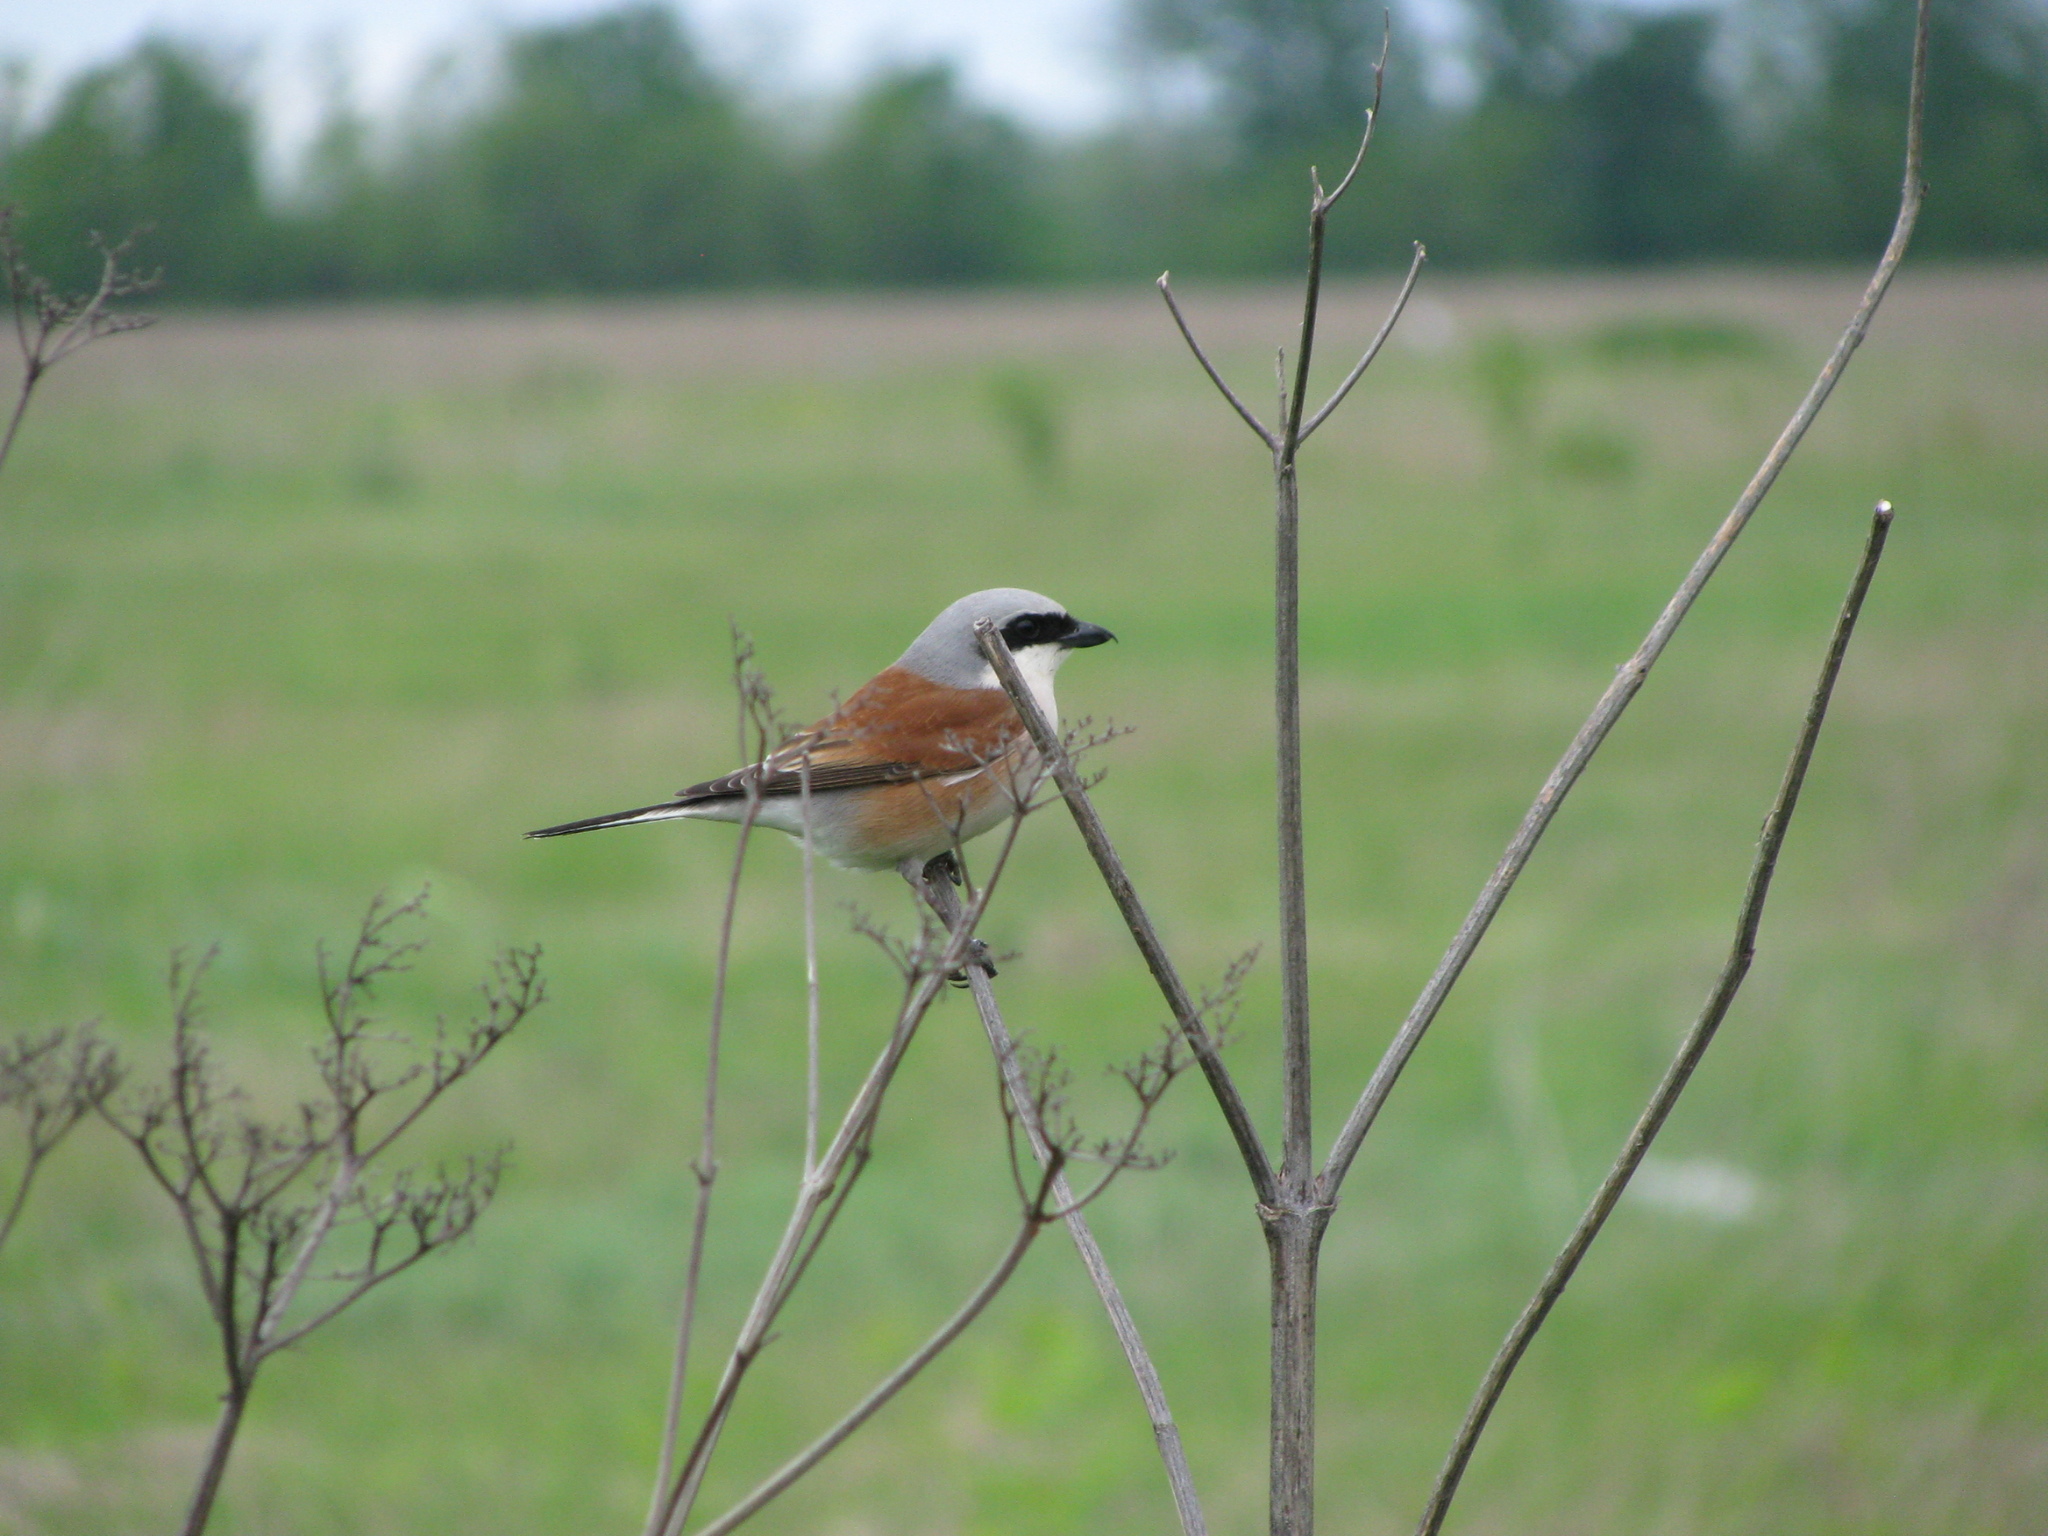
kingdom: Animalia
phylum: Chordata
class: Aves
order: Passeriformes
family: Laniidae
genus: Lanius
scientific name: Lanius collurio
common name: Red-backed shrike
